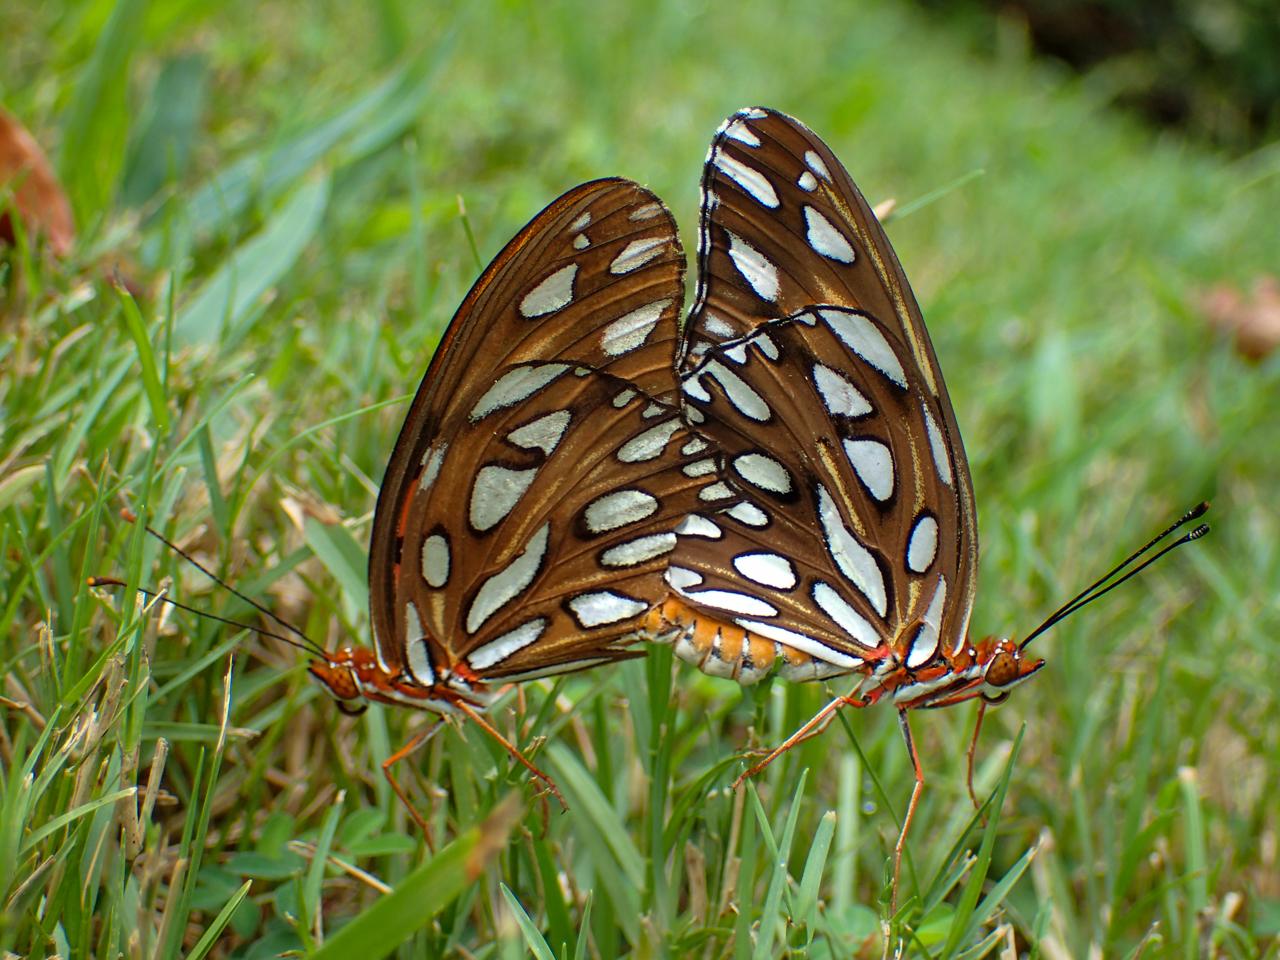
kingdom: Animalia
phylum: Arthropoda
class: Insecta
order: Lepidoptera
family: Nymphalidae
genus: Dione
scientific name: Dione vanillae
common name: Gulf fritillary
